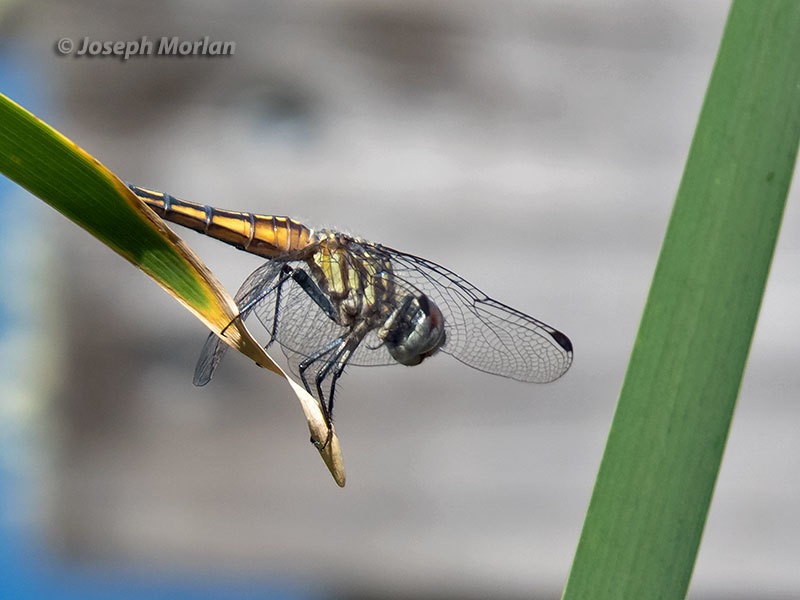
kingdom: Animalia
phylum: Arthropoda
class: Insecta
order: Odonata
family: Libellulidae
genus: Pachydiplax
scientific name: Pachydiplax longipennis
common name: Blue dasher
